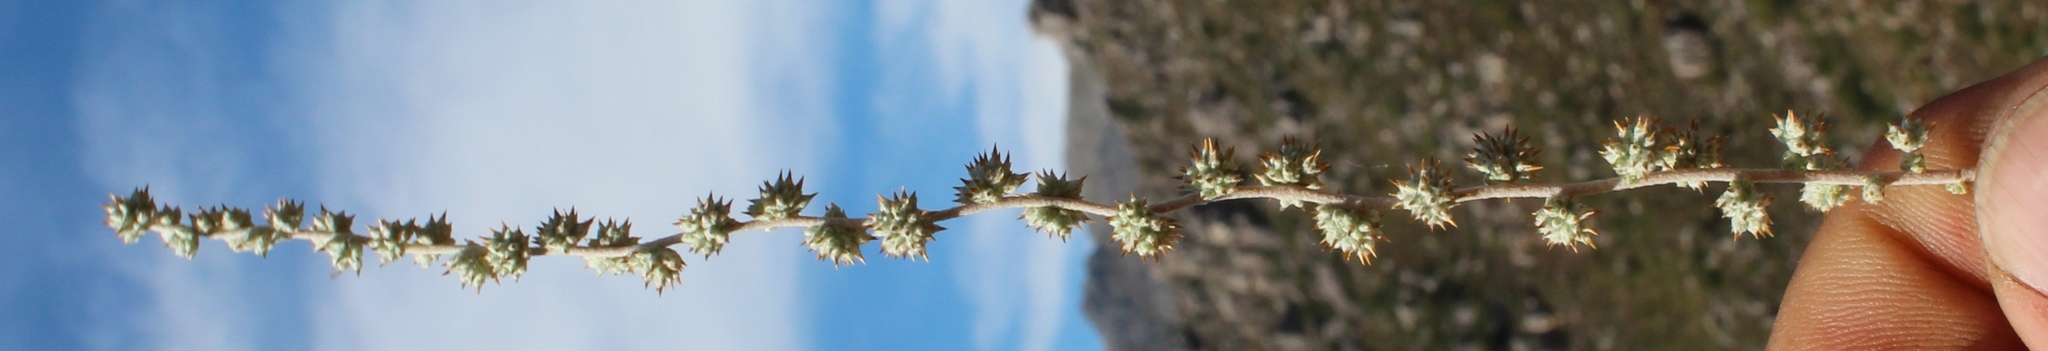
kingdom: Plantae
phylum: Tracheophyta
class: Magnoliopsida
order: Asterales
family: Asteraceae
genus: Seriphium
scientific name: Seriphium plumosum
